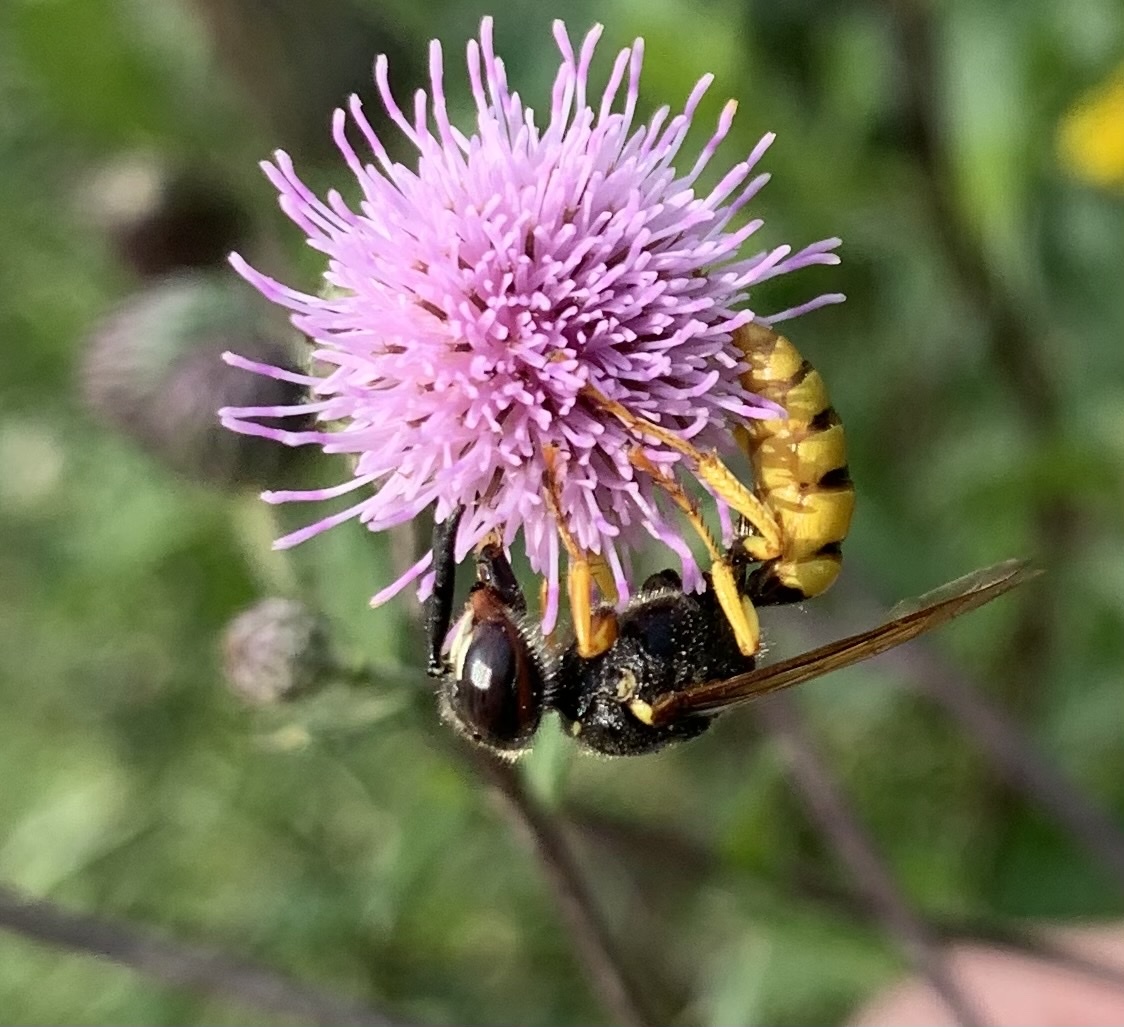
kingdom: Animalia
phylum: Arthropoda
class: Insecta
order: Hymenoptera
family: Crabronidae
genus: Philanthus
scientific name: Philanthus triangulum
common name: Bee wolf
